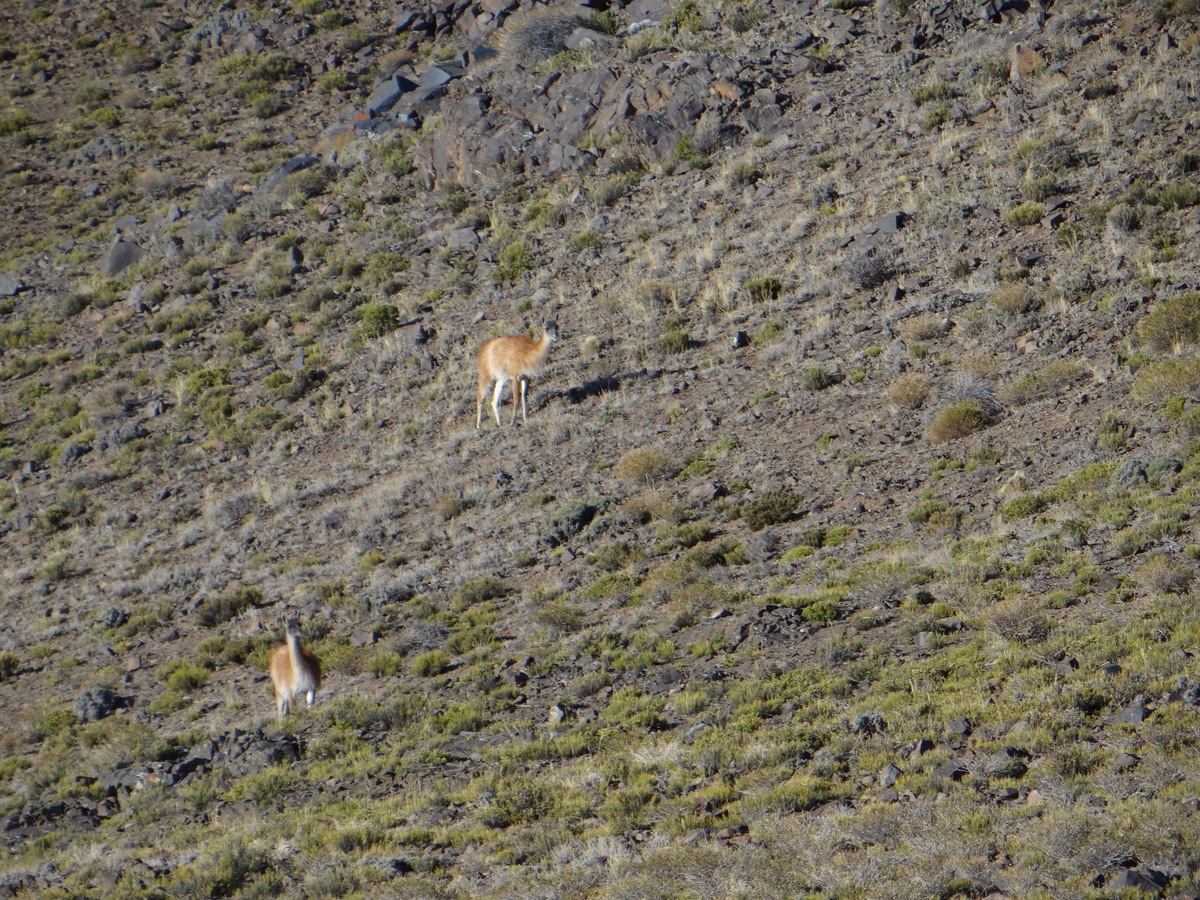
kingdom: Animalia
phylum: Chordata
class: Mammalia
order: Artiodactyla
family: Camelidae
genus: Lama
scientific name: Lama glama
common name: Llama
